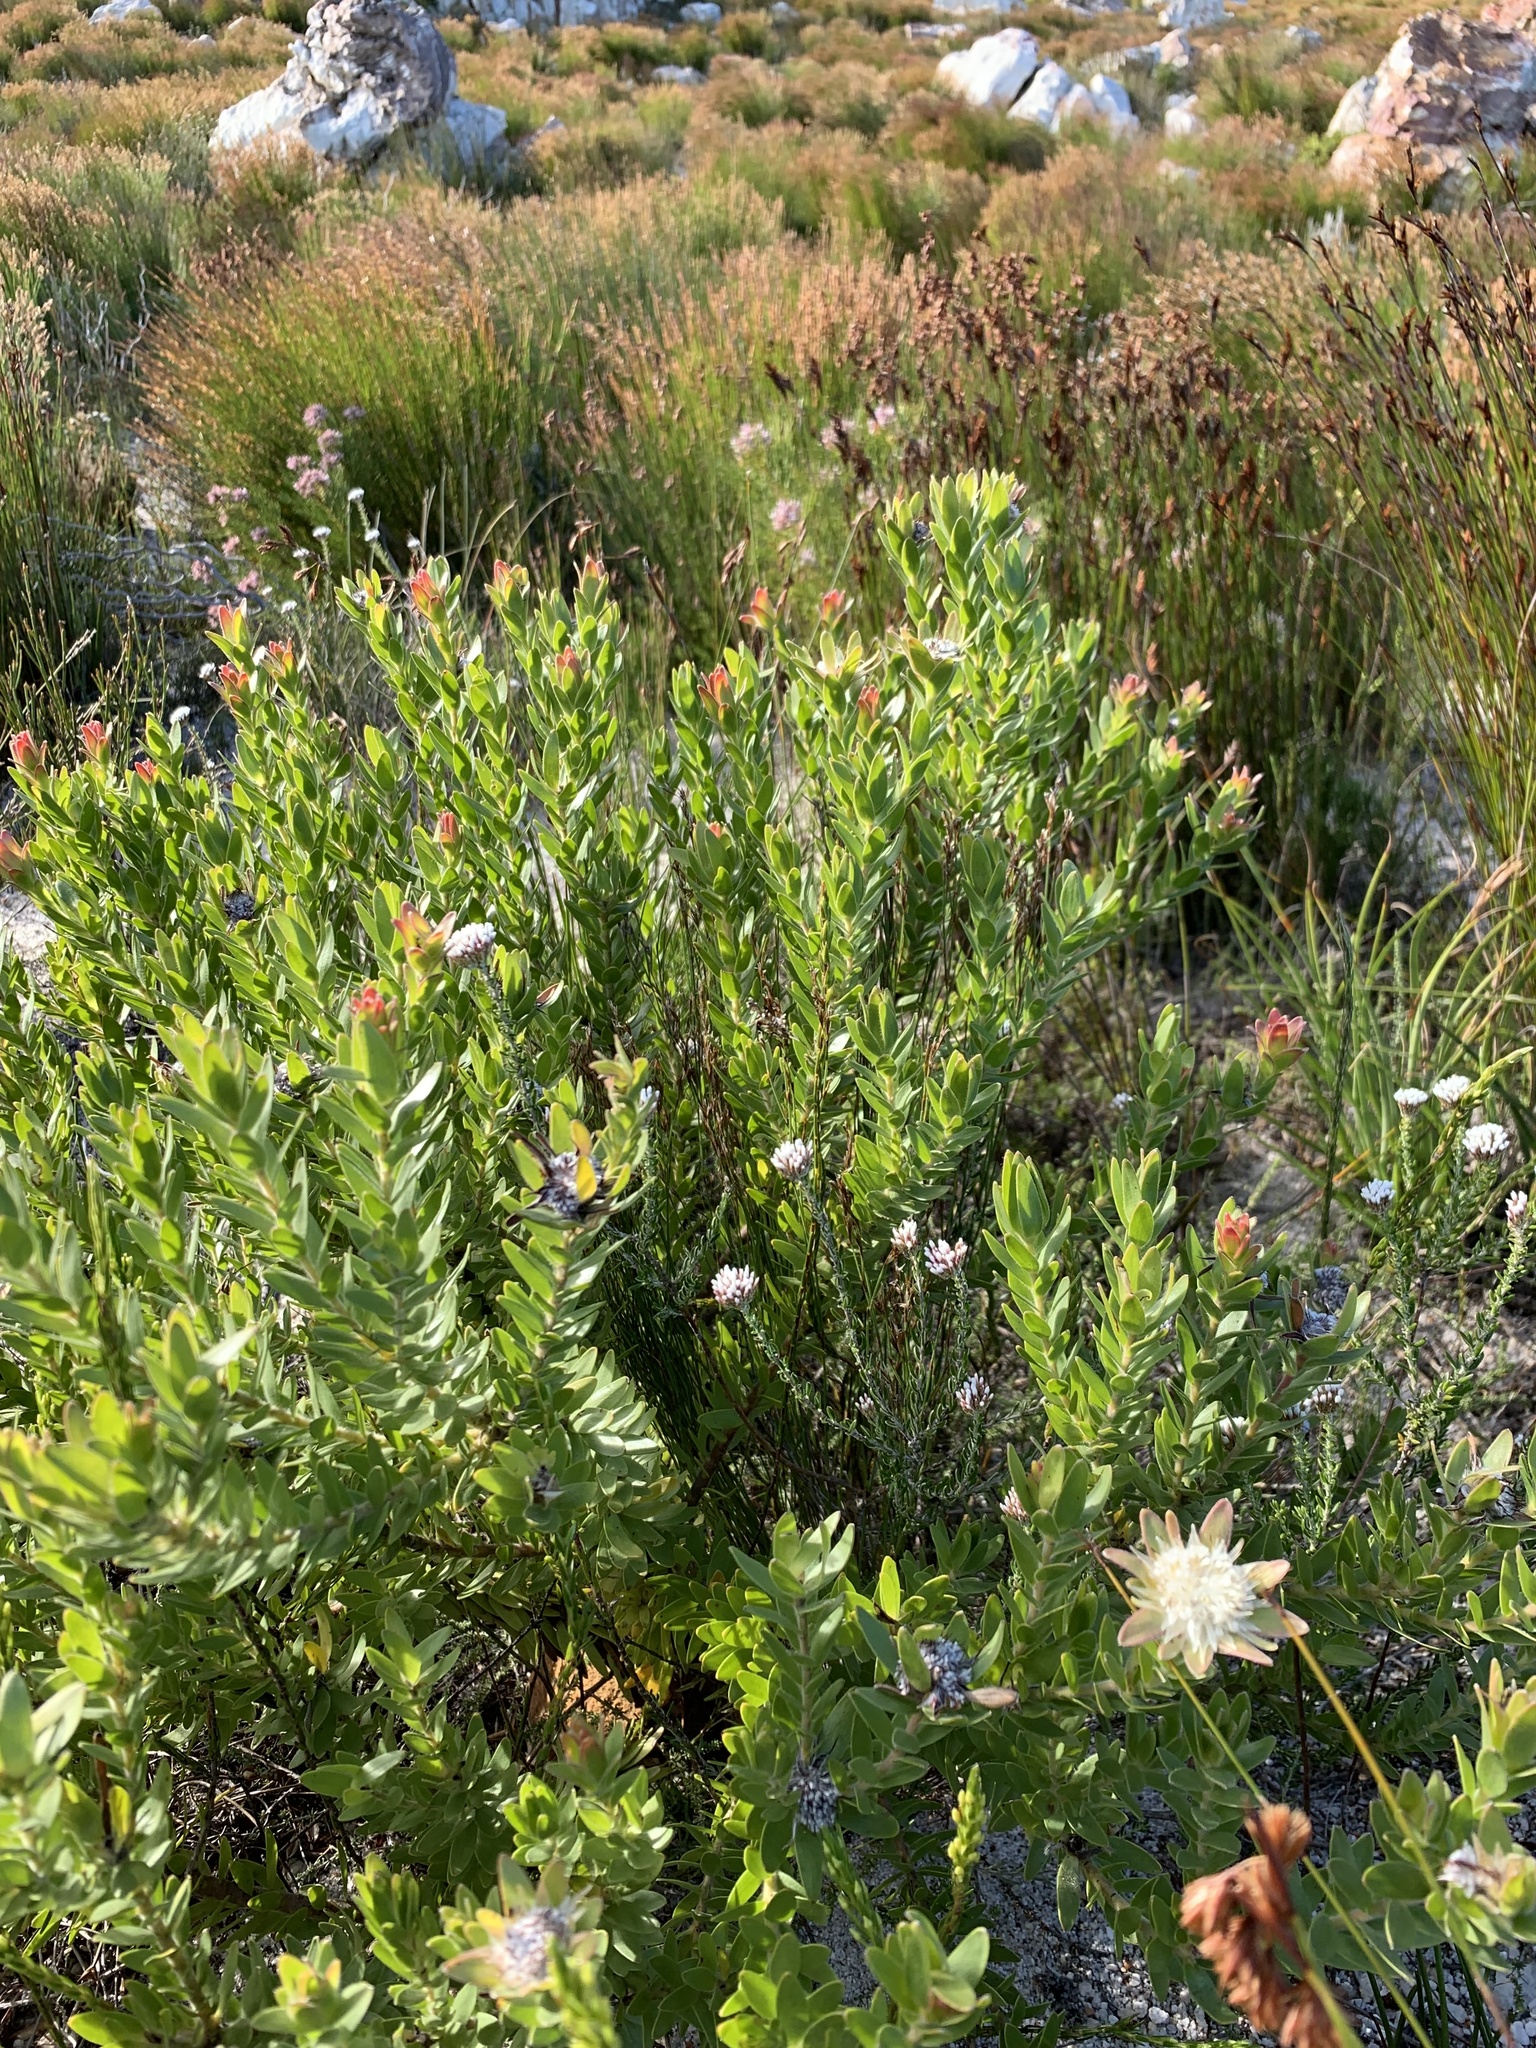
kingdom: Plantae
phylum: Tracheophyta
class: Magnoliopsida
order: Proteales
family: Proteaceae
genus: Diastella
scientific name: Diastella thymelaeoides
